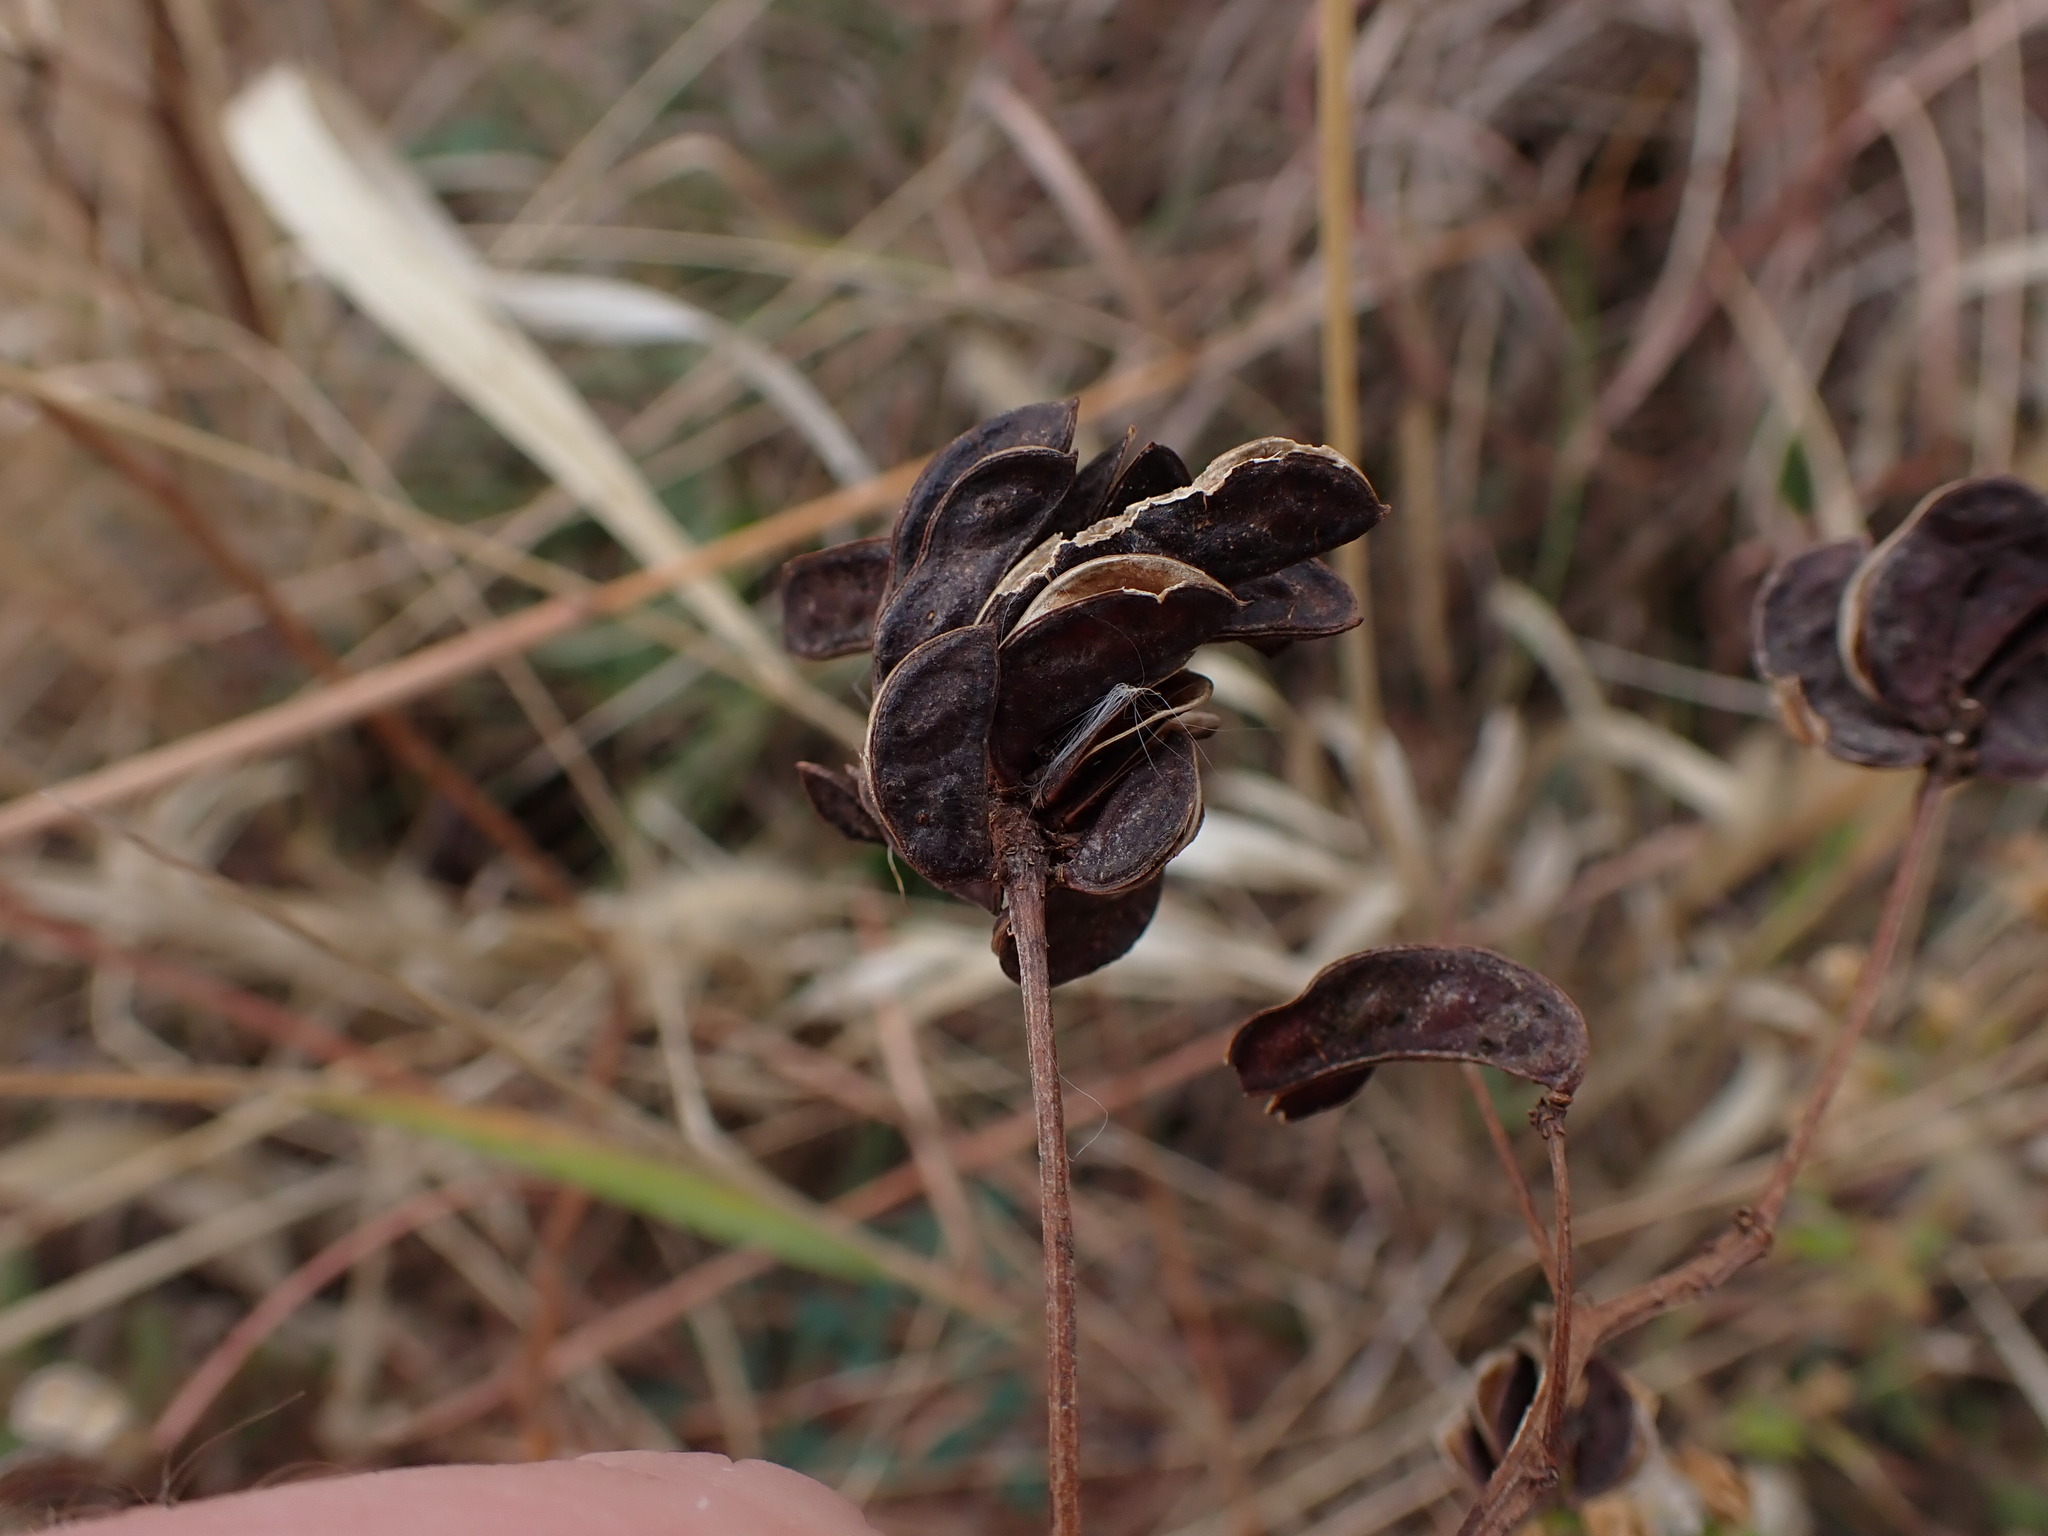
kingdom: Plantae
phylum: Tracheophyta
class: Magnoliopsida
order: Fabales
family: Fabaceae
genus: Desmanthus
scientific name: Desmanthus illinoensis
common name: Illinois bundle-flower
